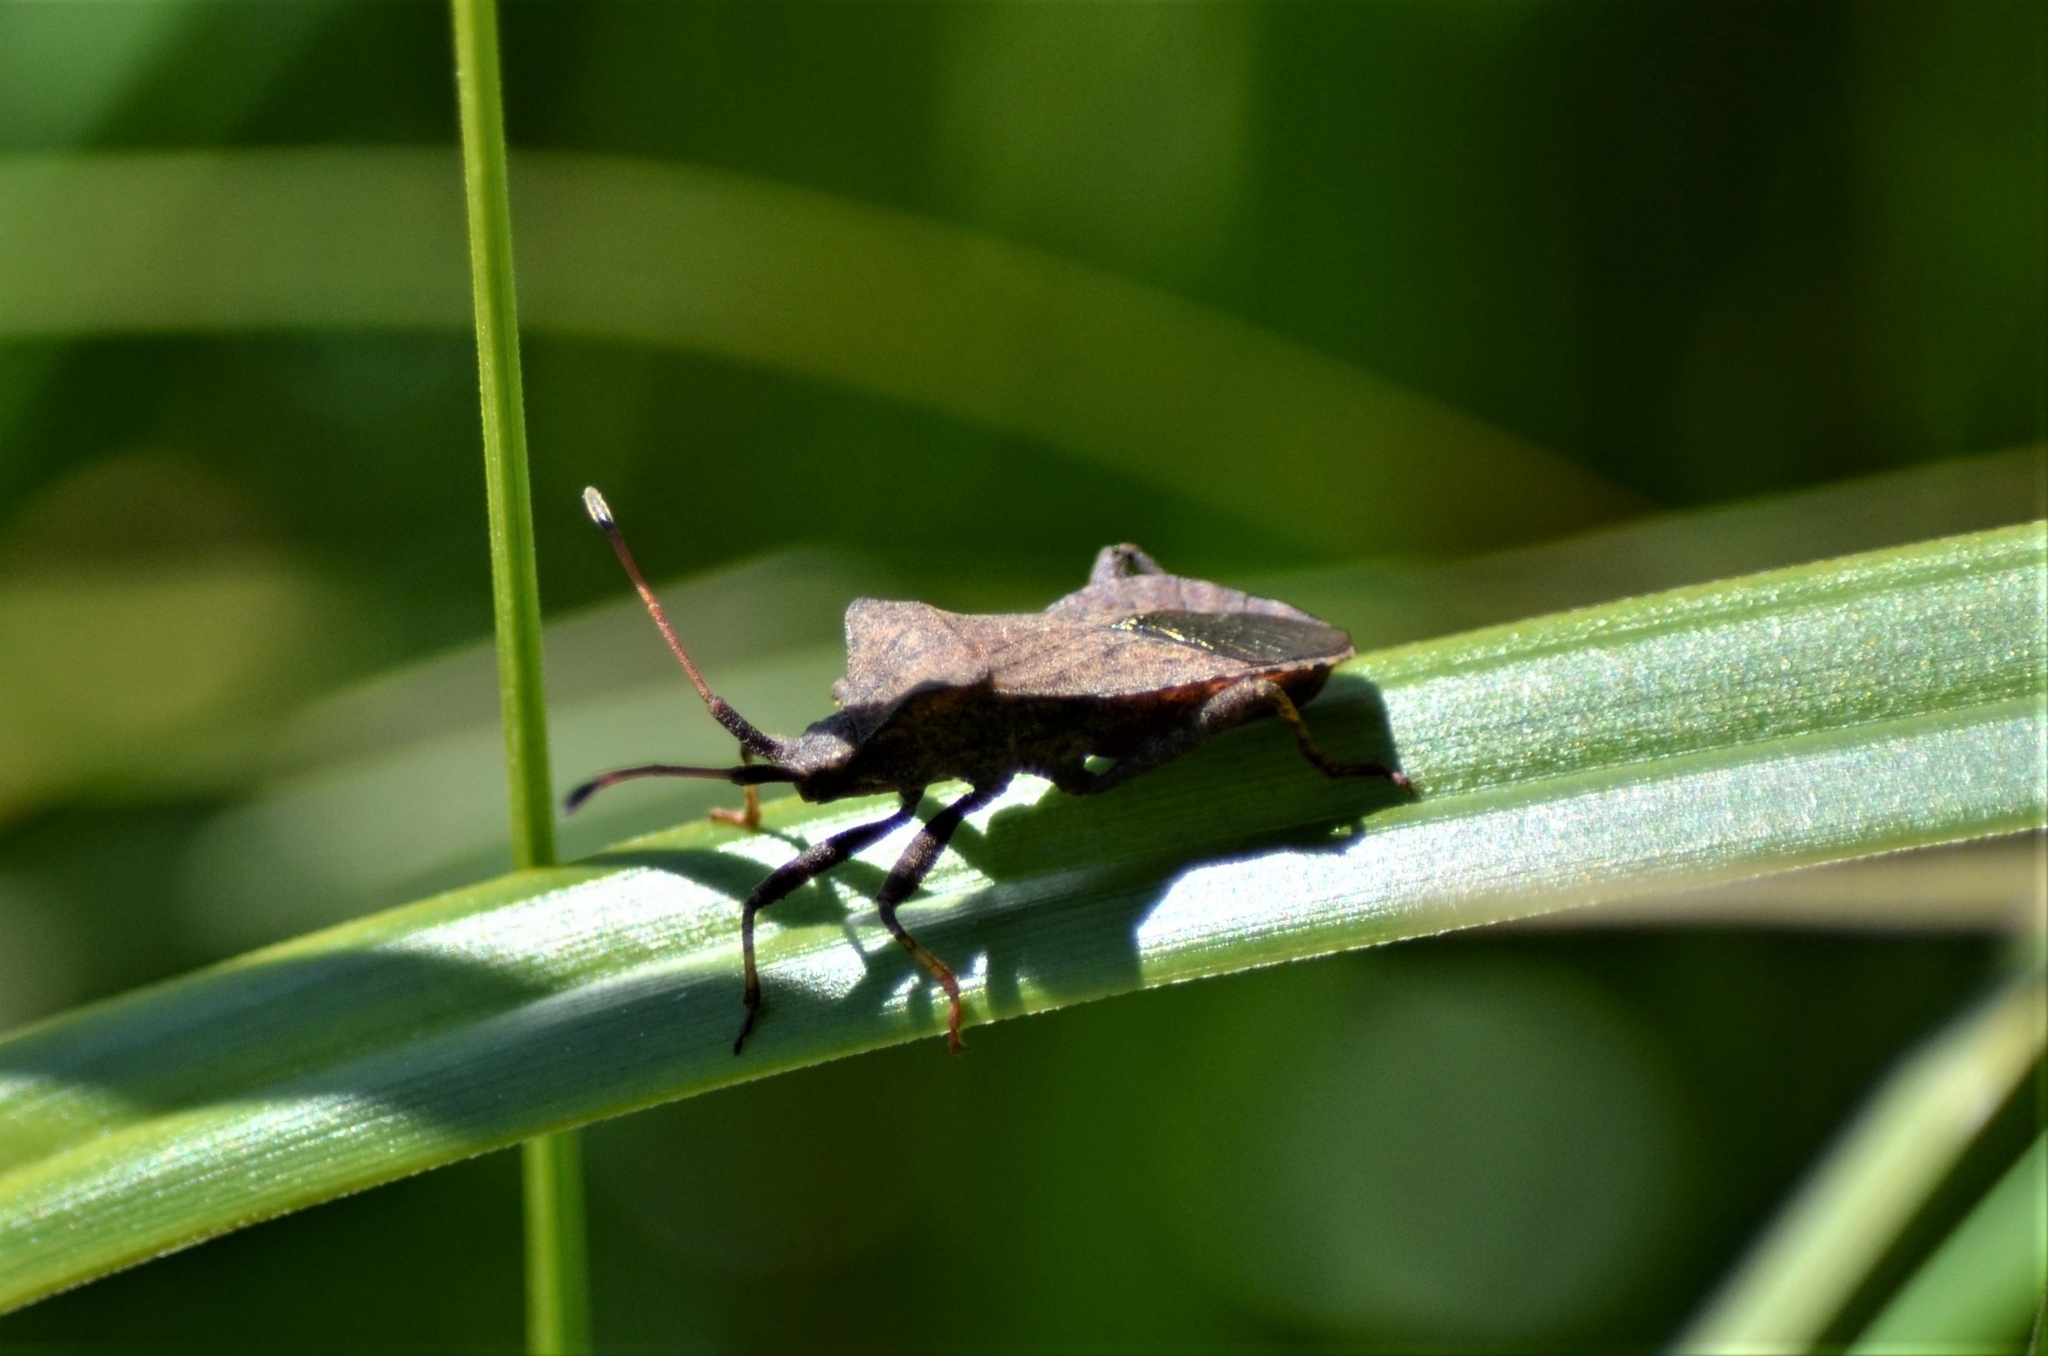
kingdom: Animalia
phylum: Arthropoda
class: Insecta
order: Hemiptera
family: Coreidae
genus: Coreus
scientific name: Coreus marginatus
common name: Dock bug
